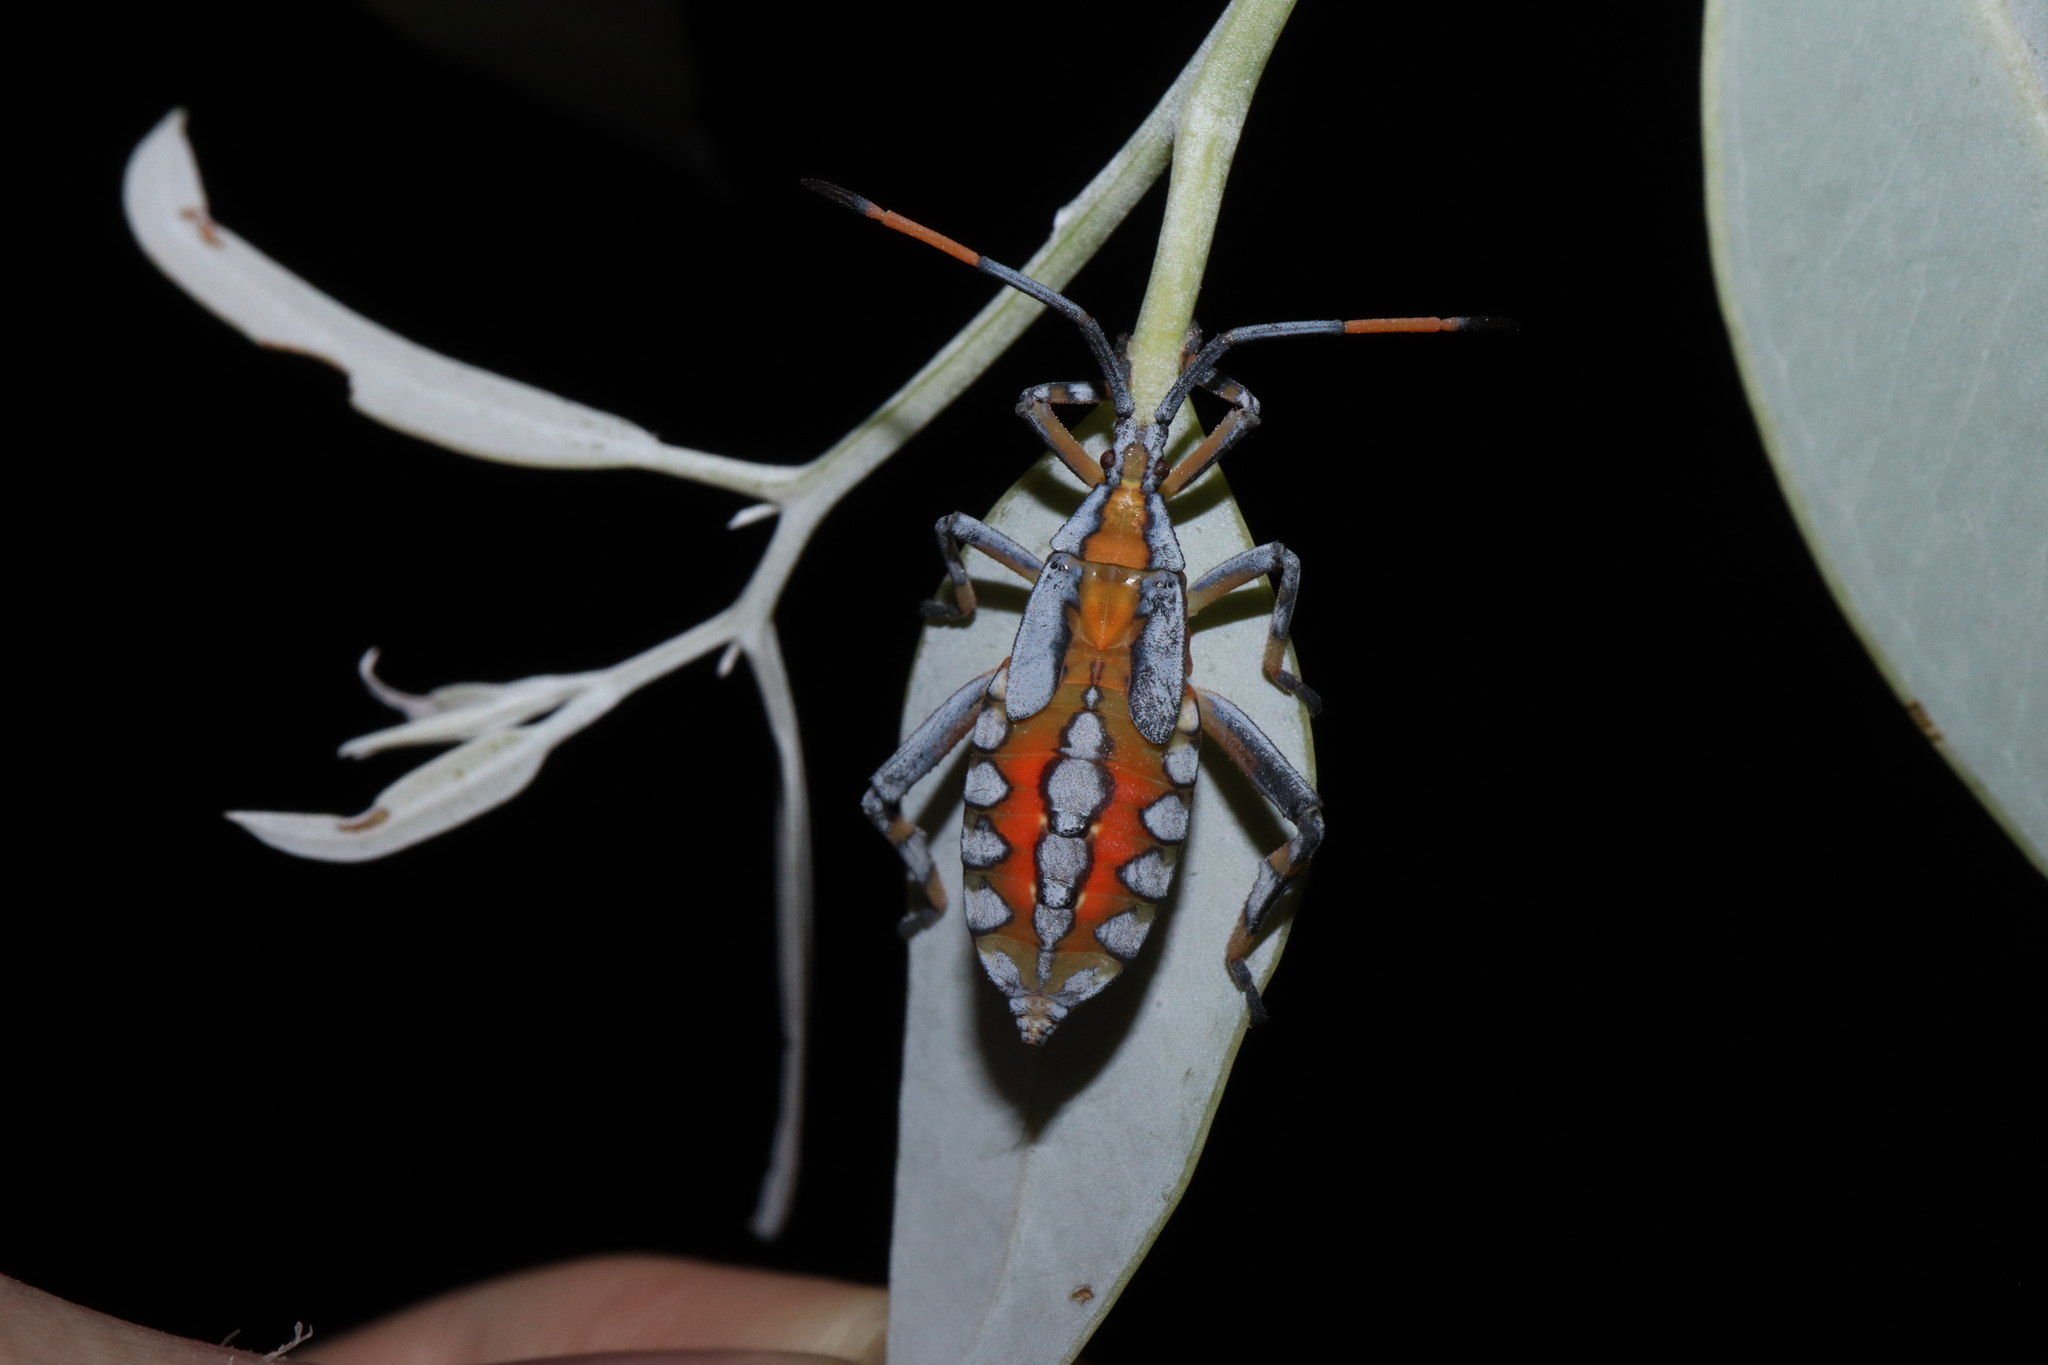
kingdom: Animalia
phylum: Arthropoda
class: Insecta
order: Hemiptera
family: Coreidae
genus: Amorbus
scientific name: Amorbus alternatus
